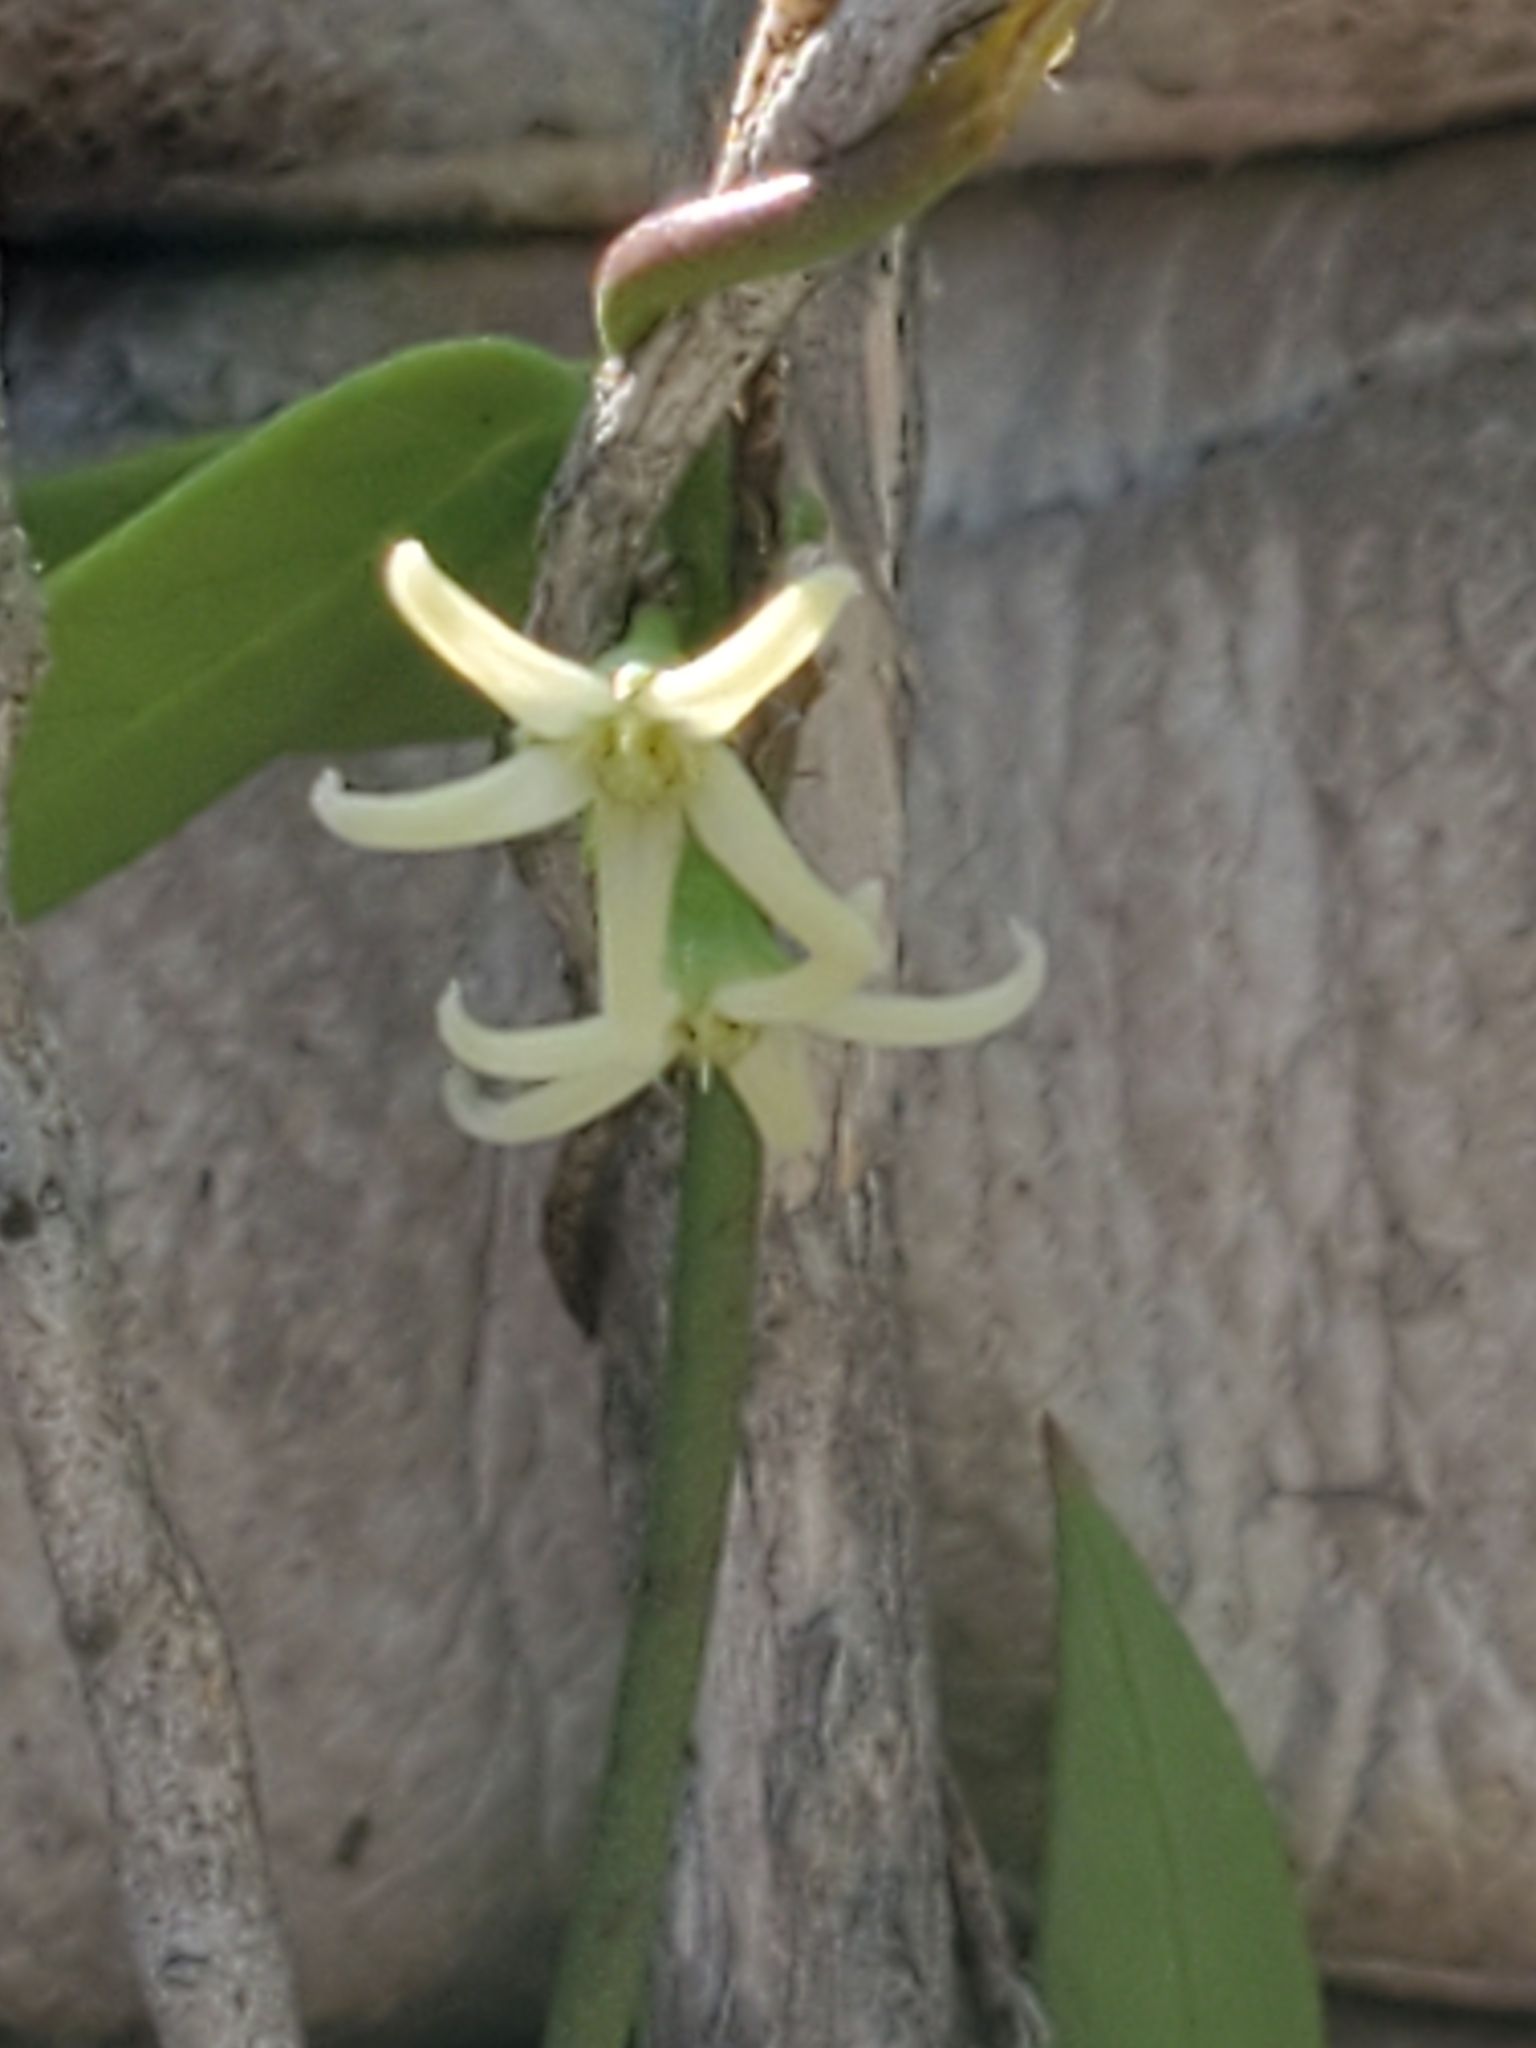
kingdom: Plantae
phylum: Tracheophyta
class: Magnoliopsida
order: Gentianales
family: Apocynaceae
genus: Metastelma
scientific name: Metastelma palmeri
